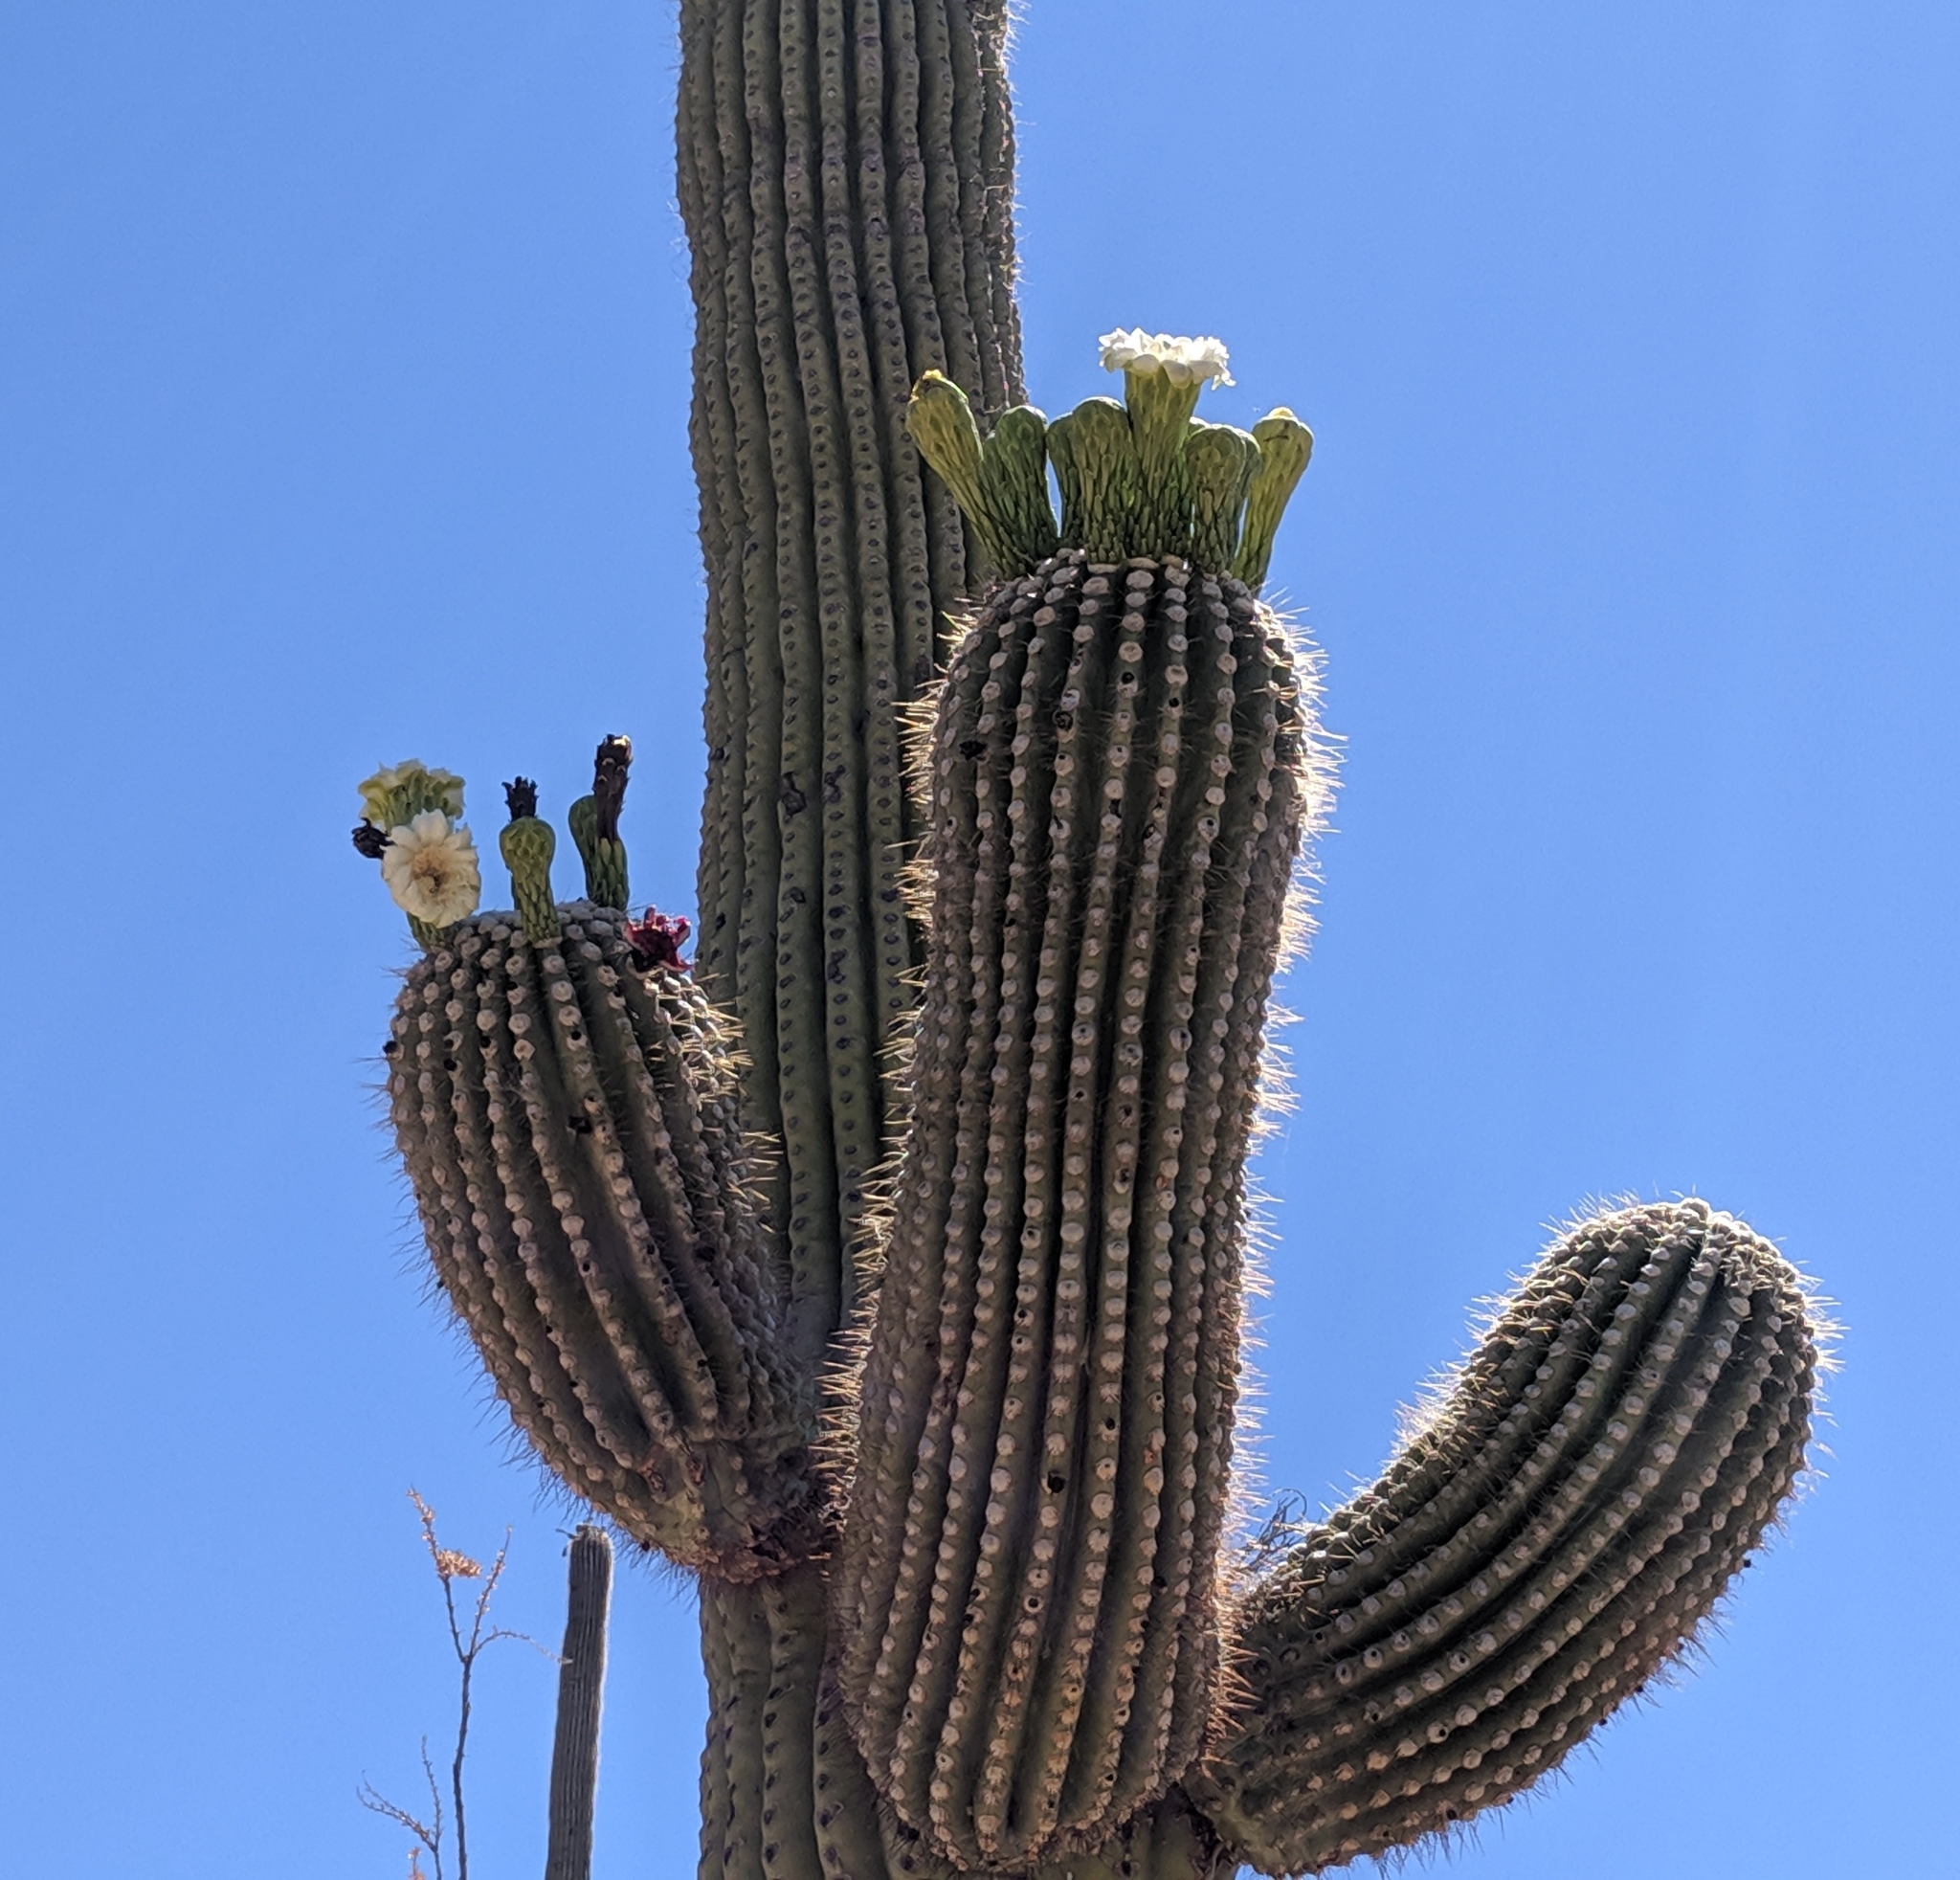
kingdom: Plantae
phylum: Tracheophyta
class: Magnoliopsida
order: Caryophyllales
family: Cactaceae
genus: Carnegiea
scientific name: Carnegiea gigantea
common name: Saguaro
